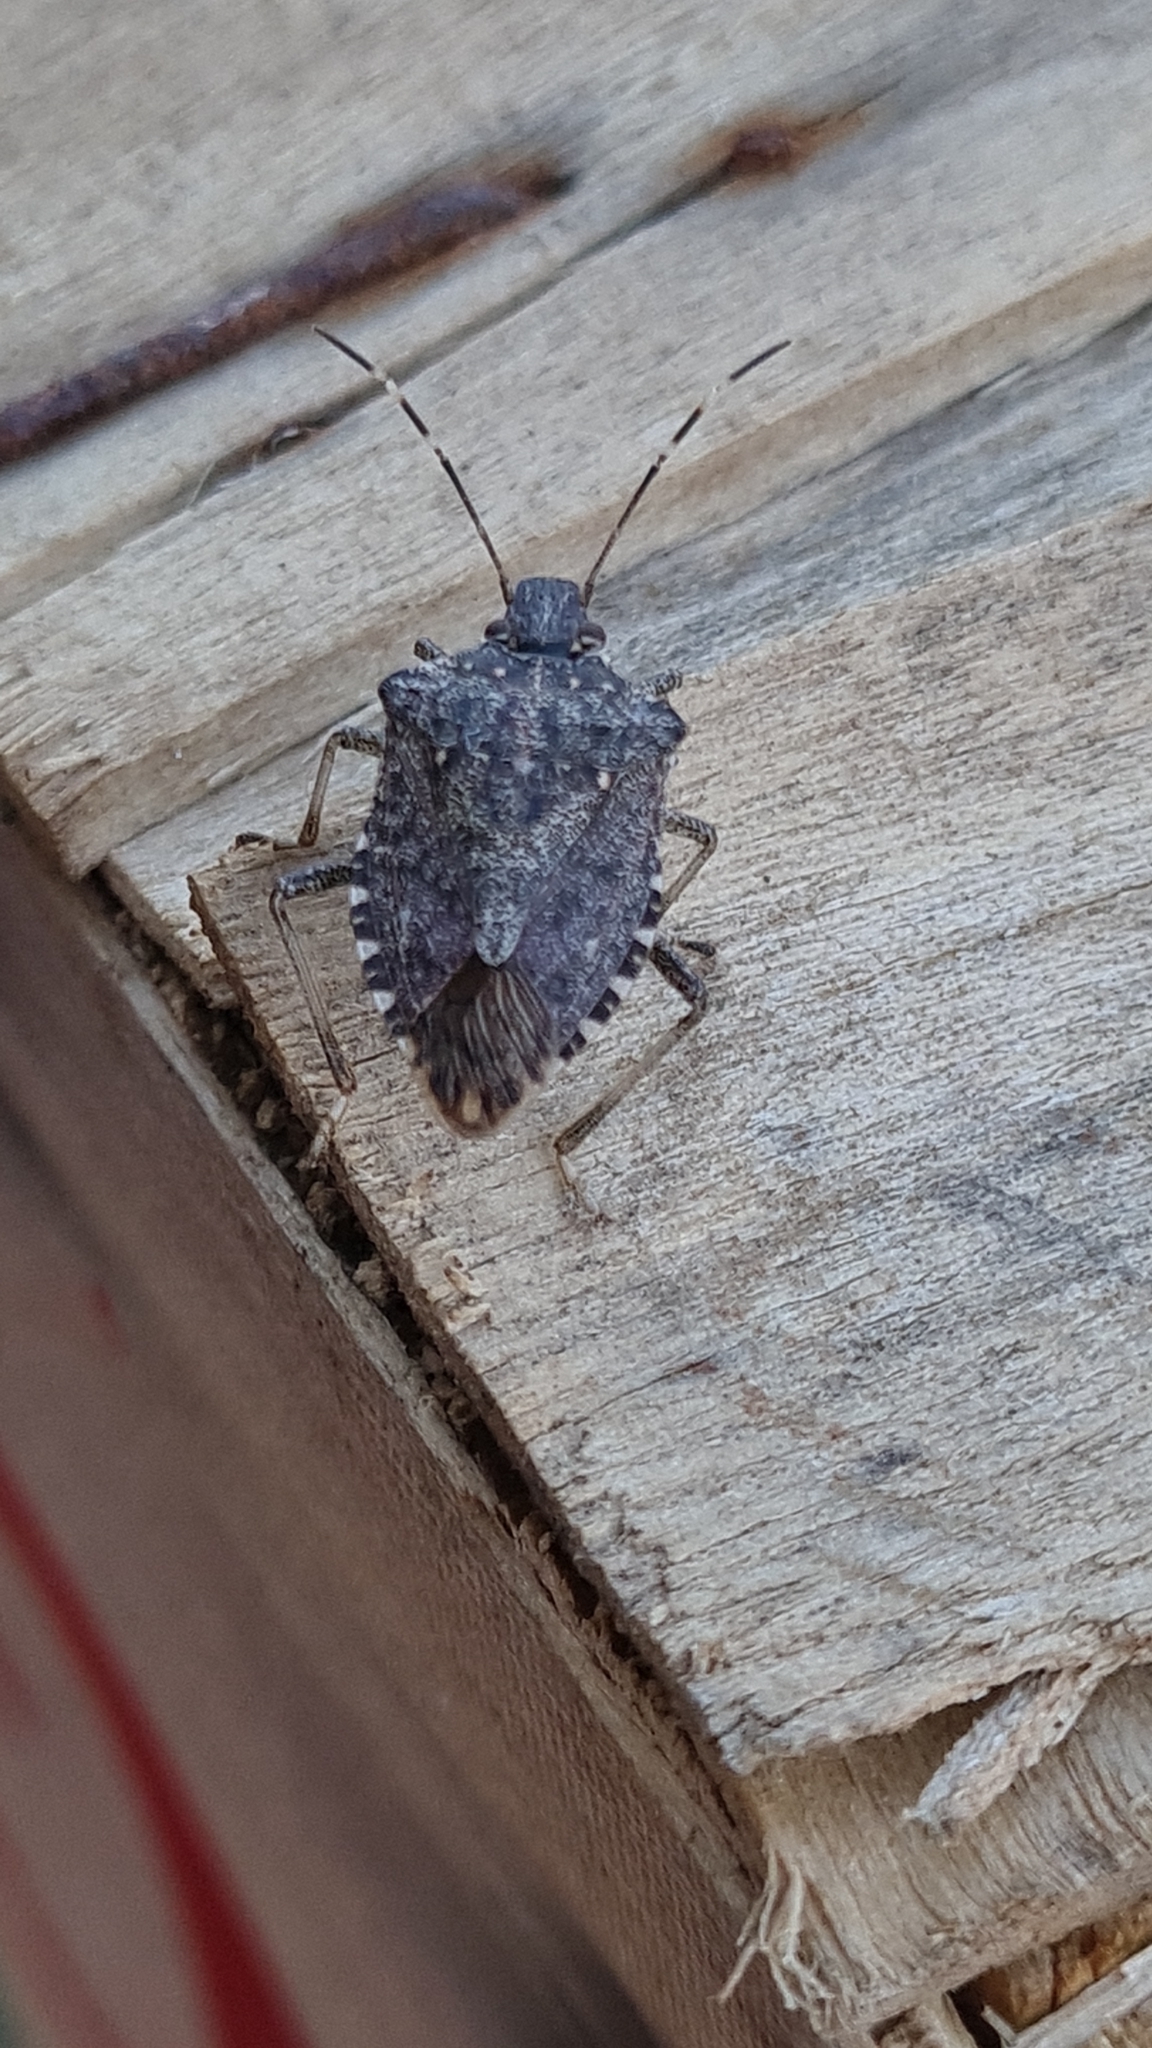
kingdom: Animalia
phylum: Arthropoda
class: Insecta
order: Hemiptera
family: Pentatomidae
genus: Halyomorpha
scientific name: Halyomorpha halys
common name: Brown marmorated stink bug
